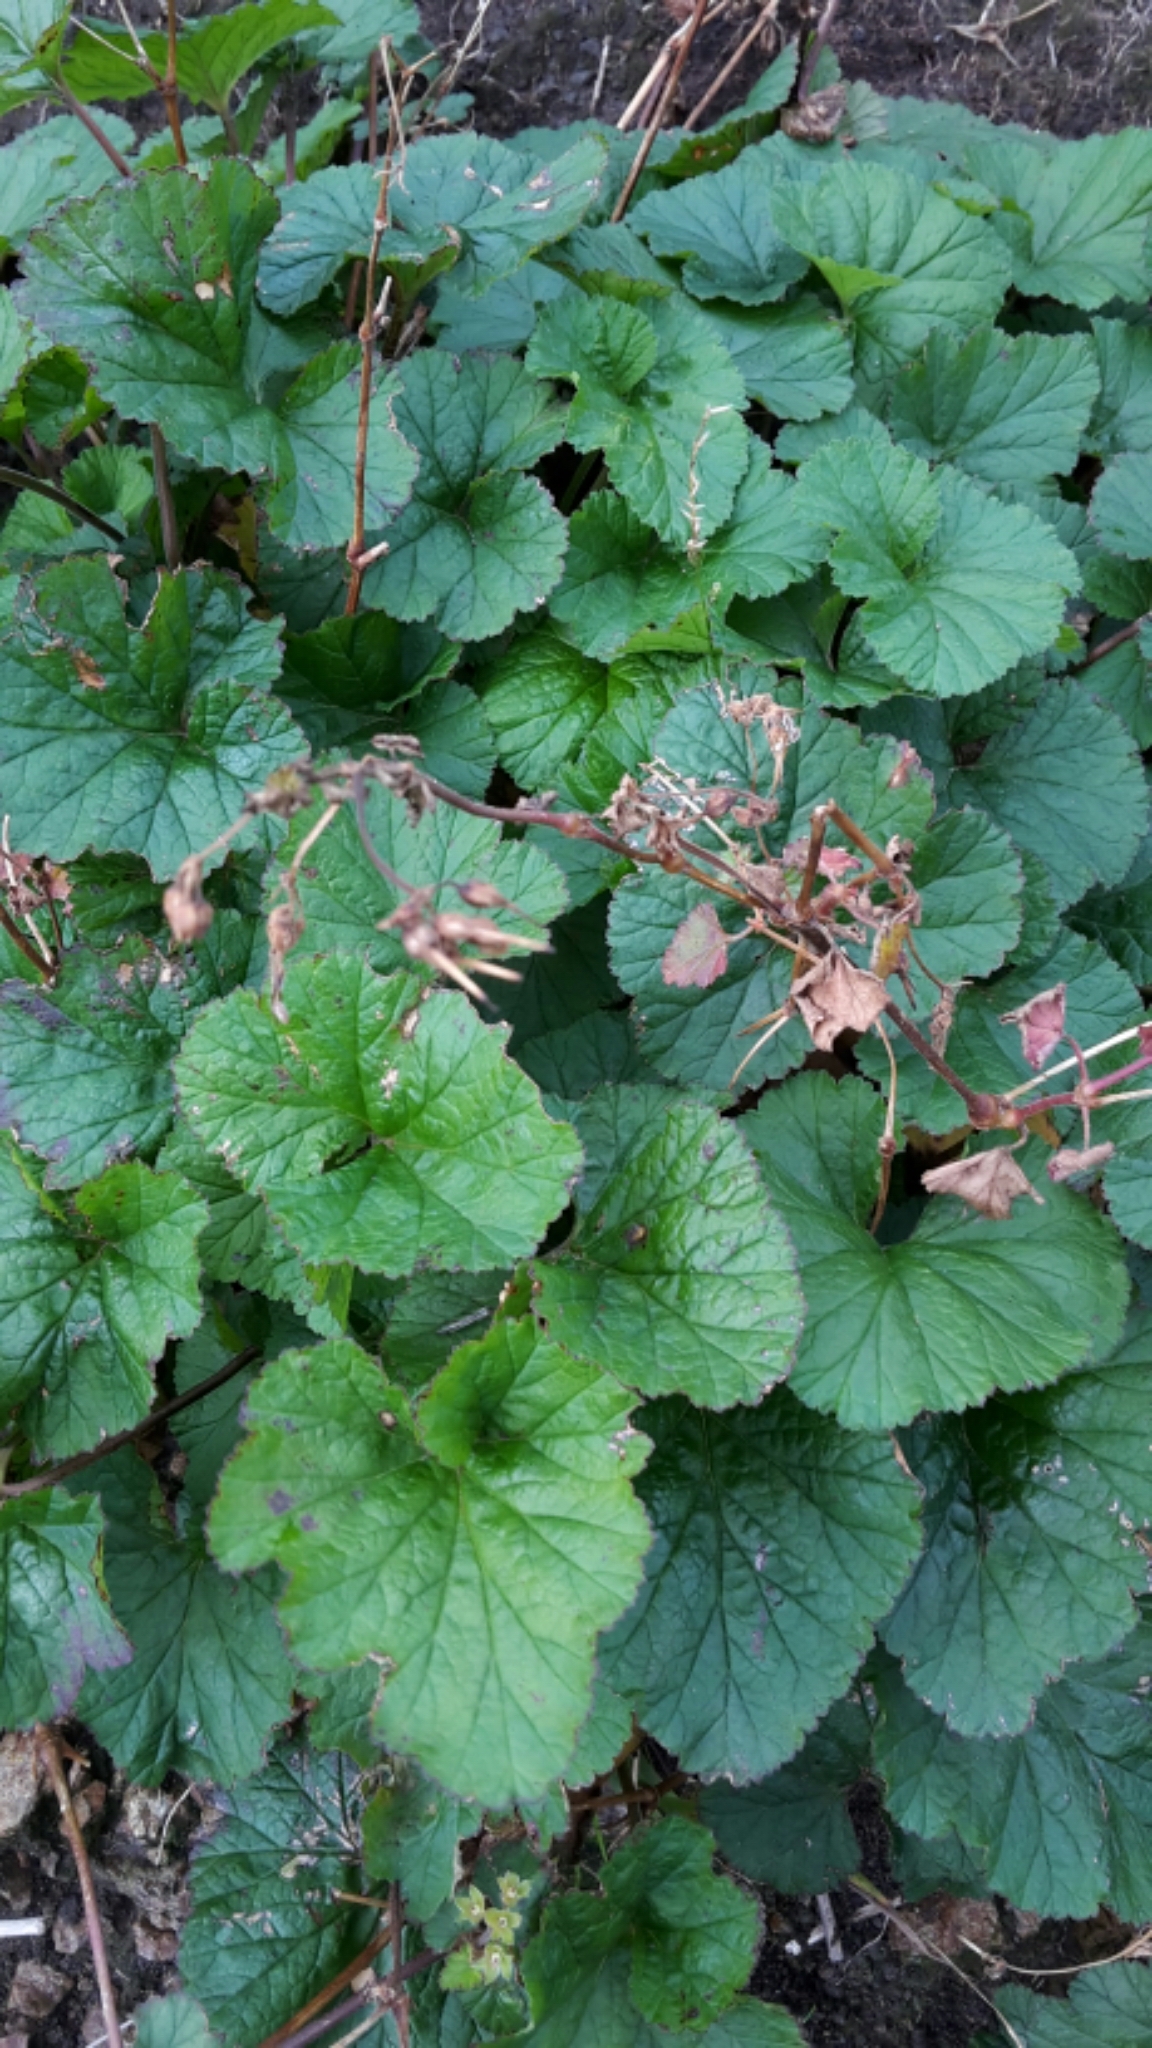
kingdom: Plantae
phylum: Tracheophyta
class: Magnoliopsida
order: Geraniales
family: Geraniaceae
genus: Pelargonium
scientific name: Pelargonium inodorum
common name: Kopata geranium
